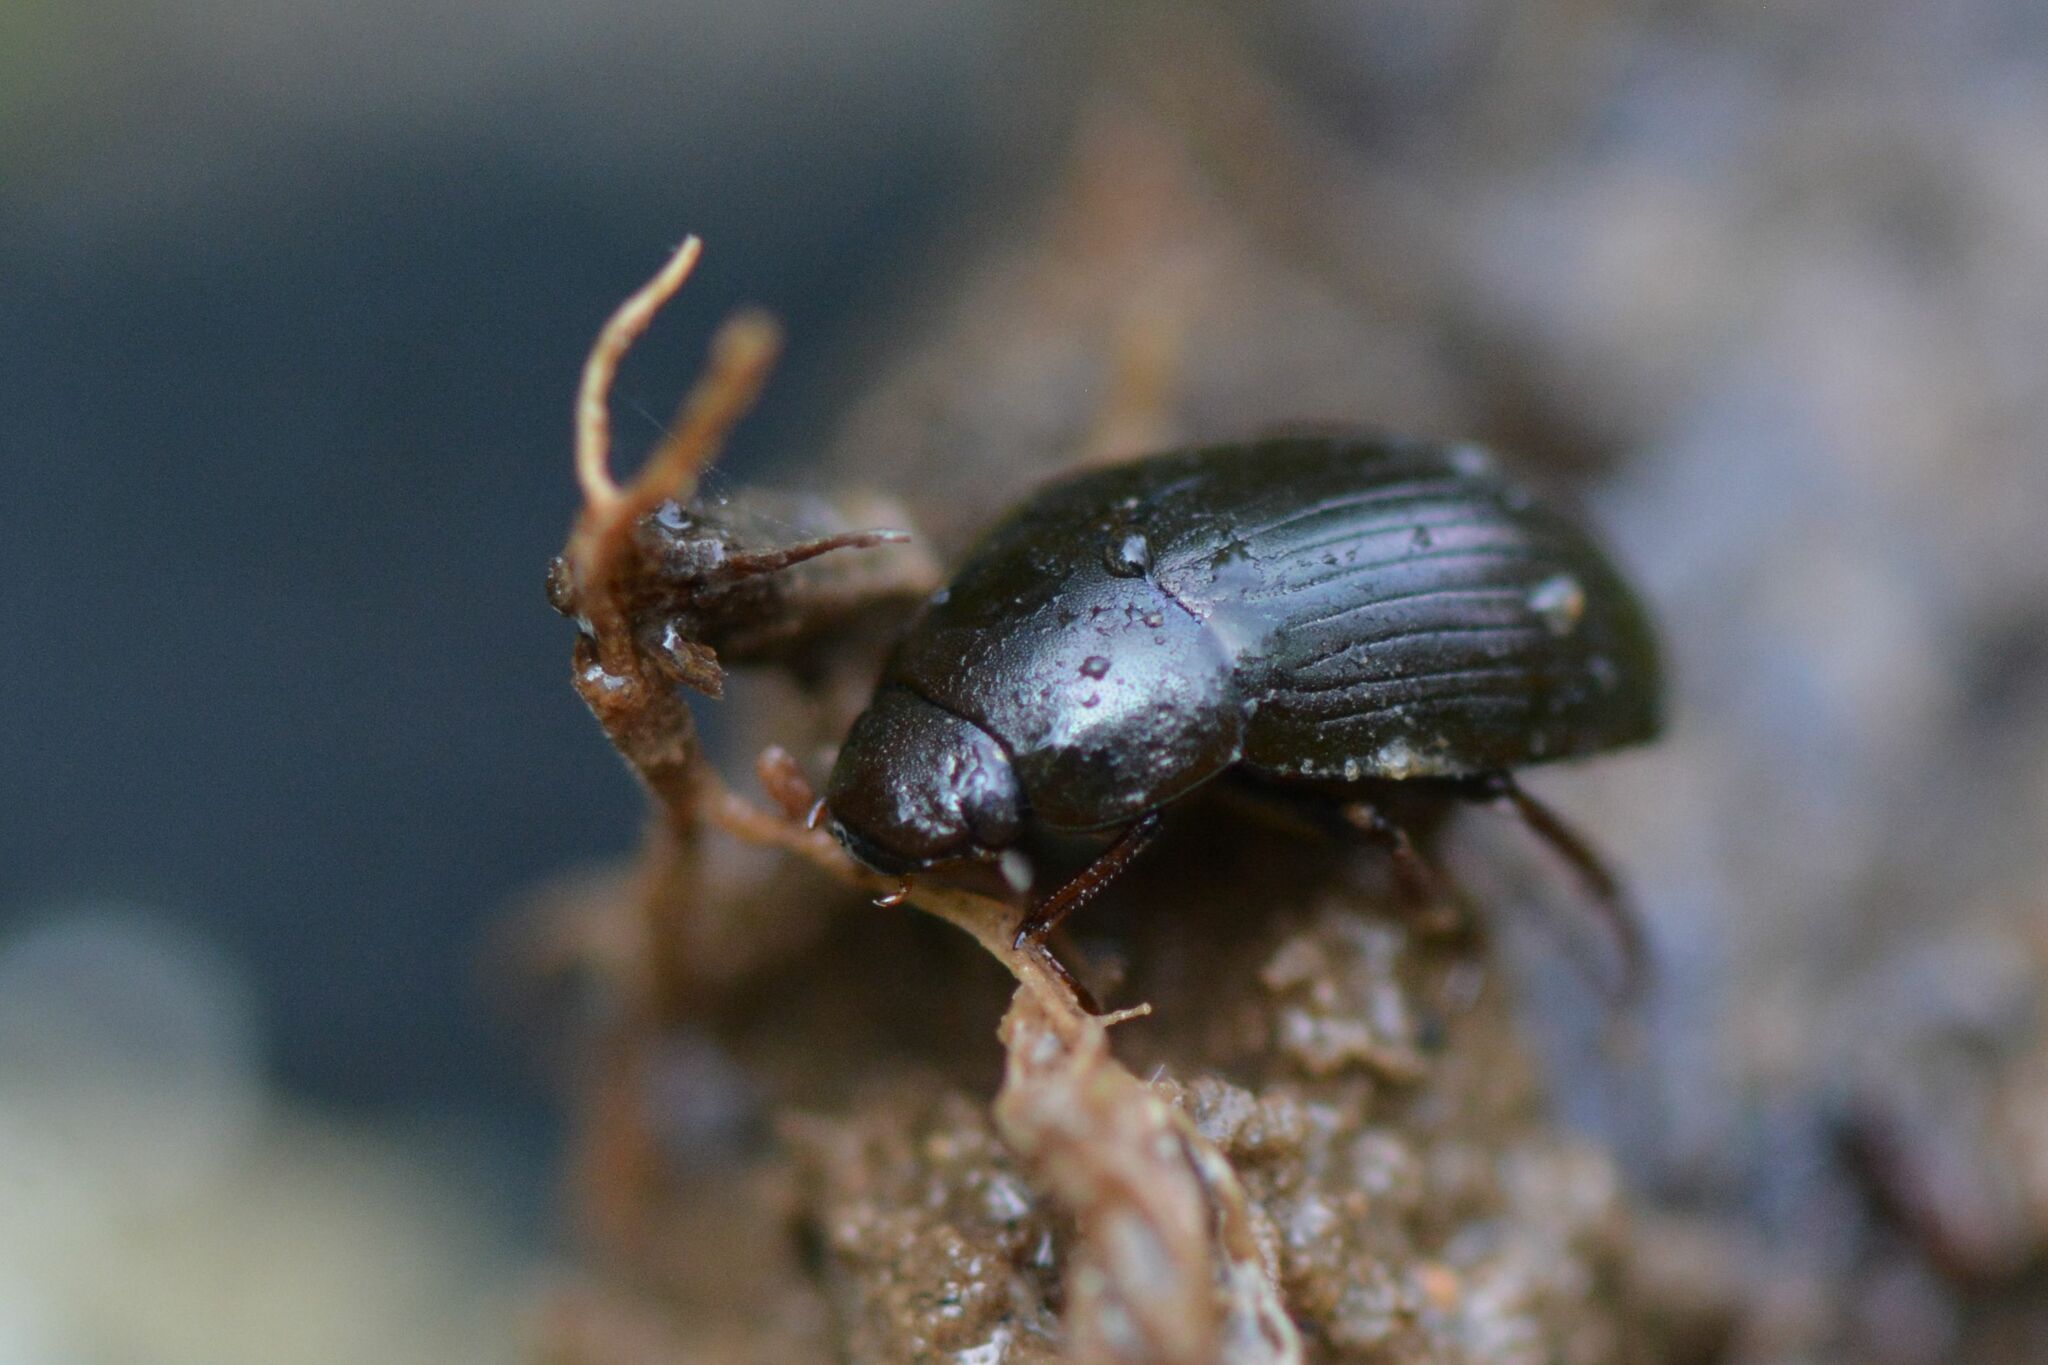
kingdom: Animalia
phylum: Arthropoda
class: Insecta
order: Coleoptera
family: Hydrophilidae
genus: Hydrobius
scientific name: Hydrobius
